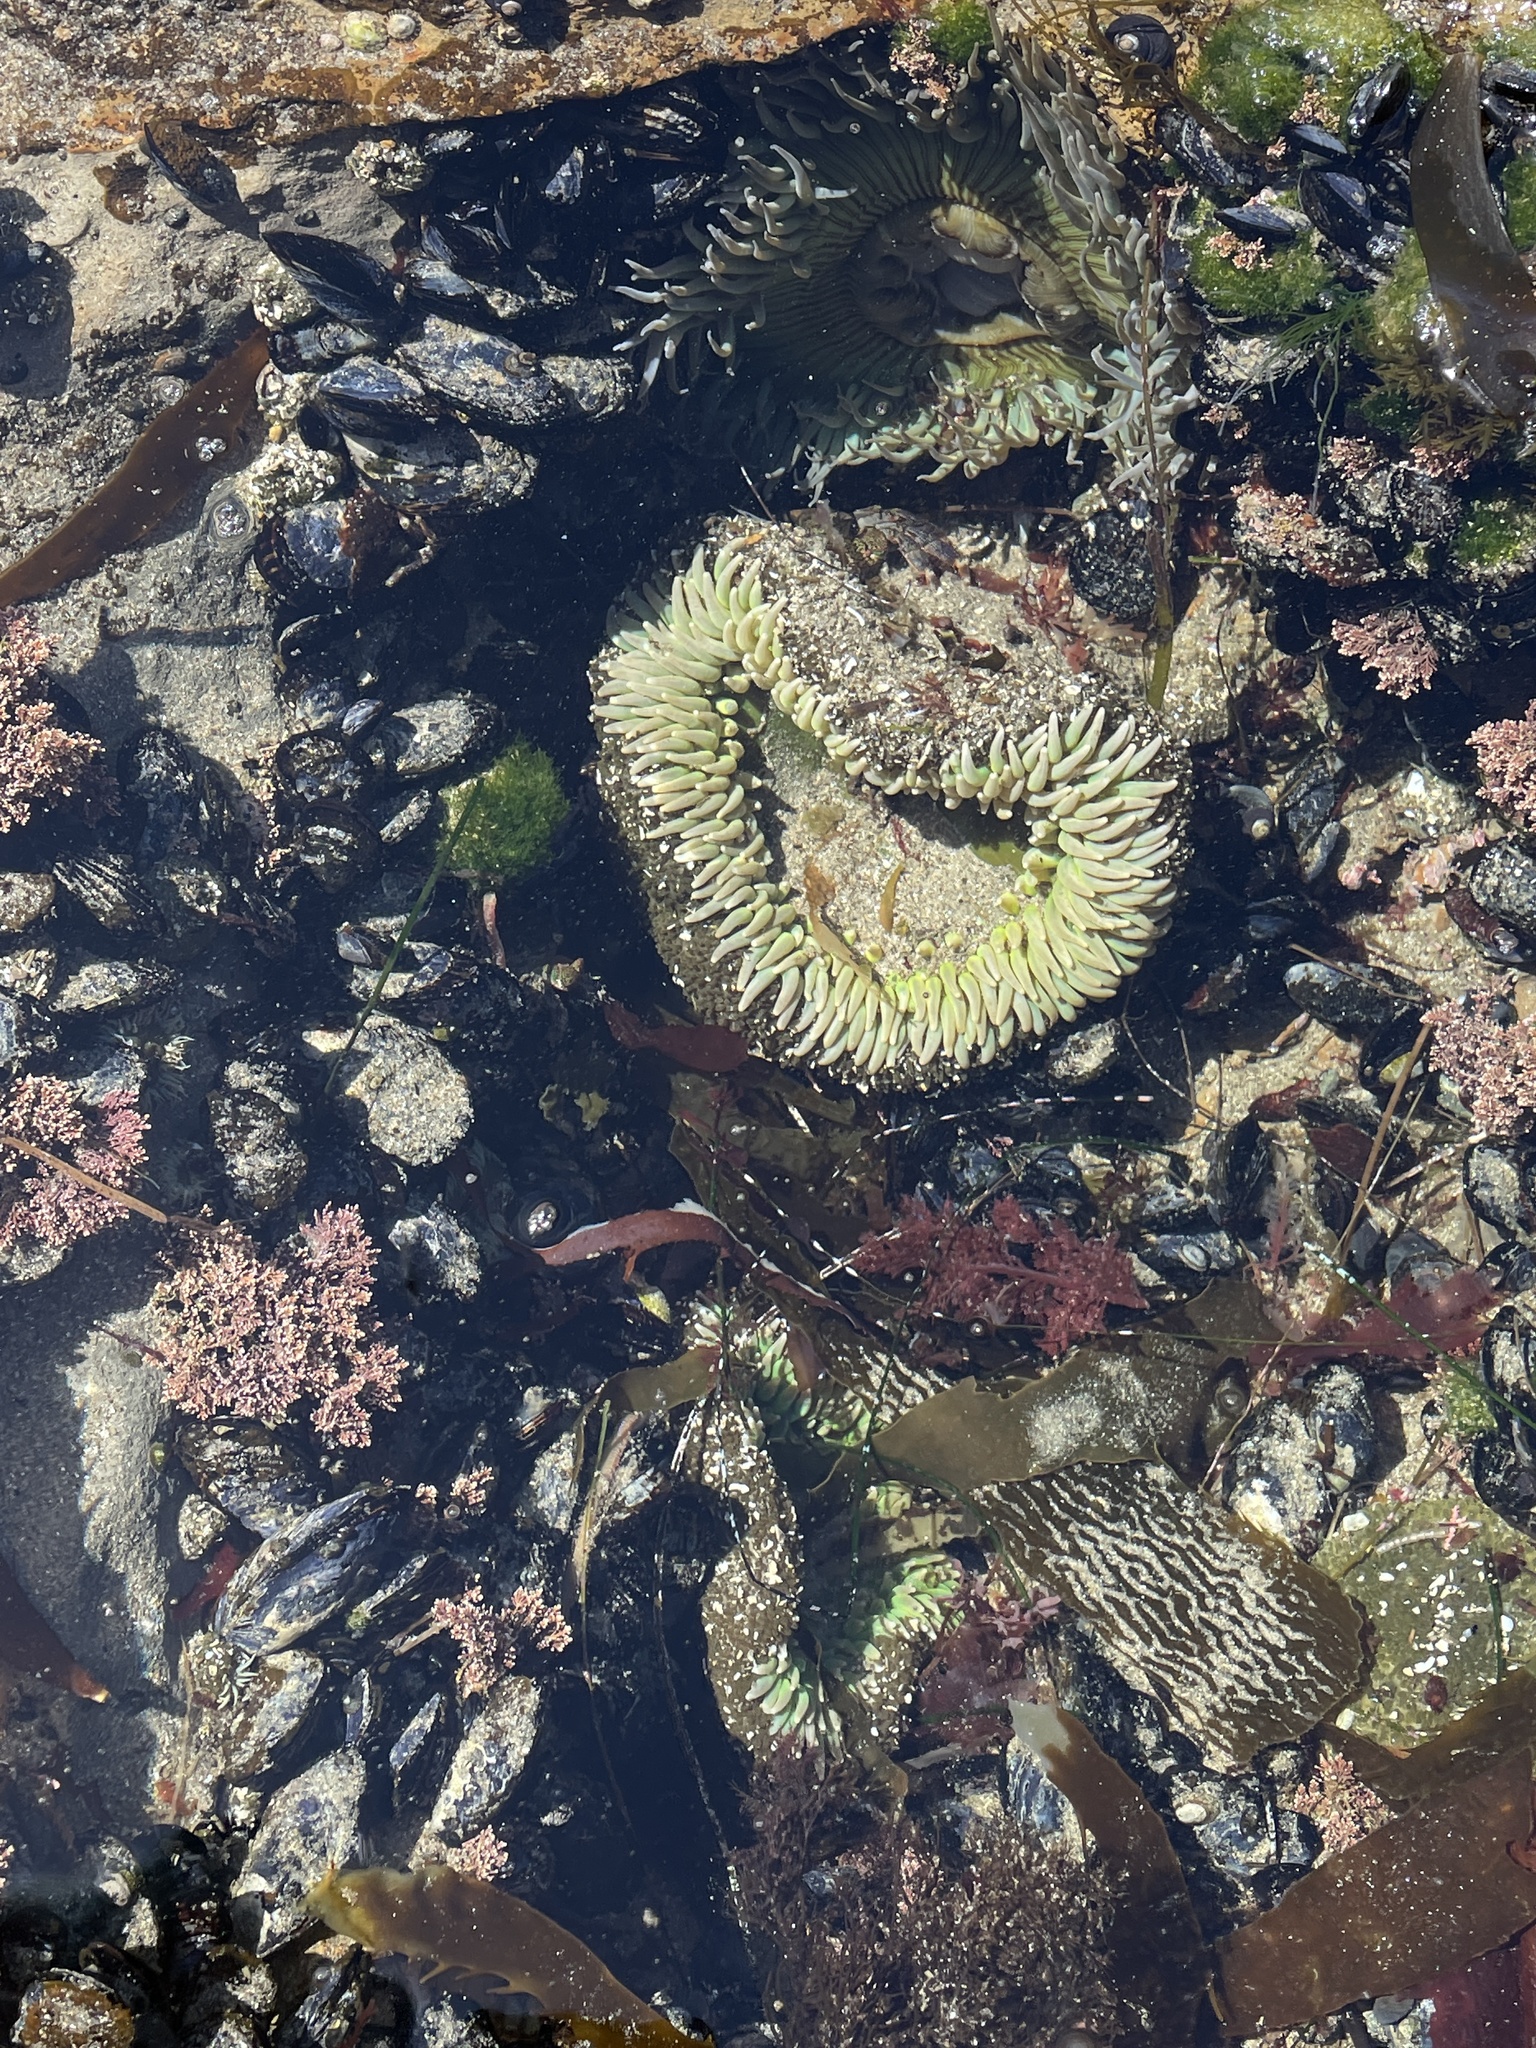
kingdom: Animalia
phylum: Cnidaria
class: Anthozoa
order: Actiniaria
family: Actiniidae
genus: Anthopleura
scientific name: Anthopleura xanthogrammica
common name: Giant green anemone
